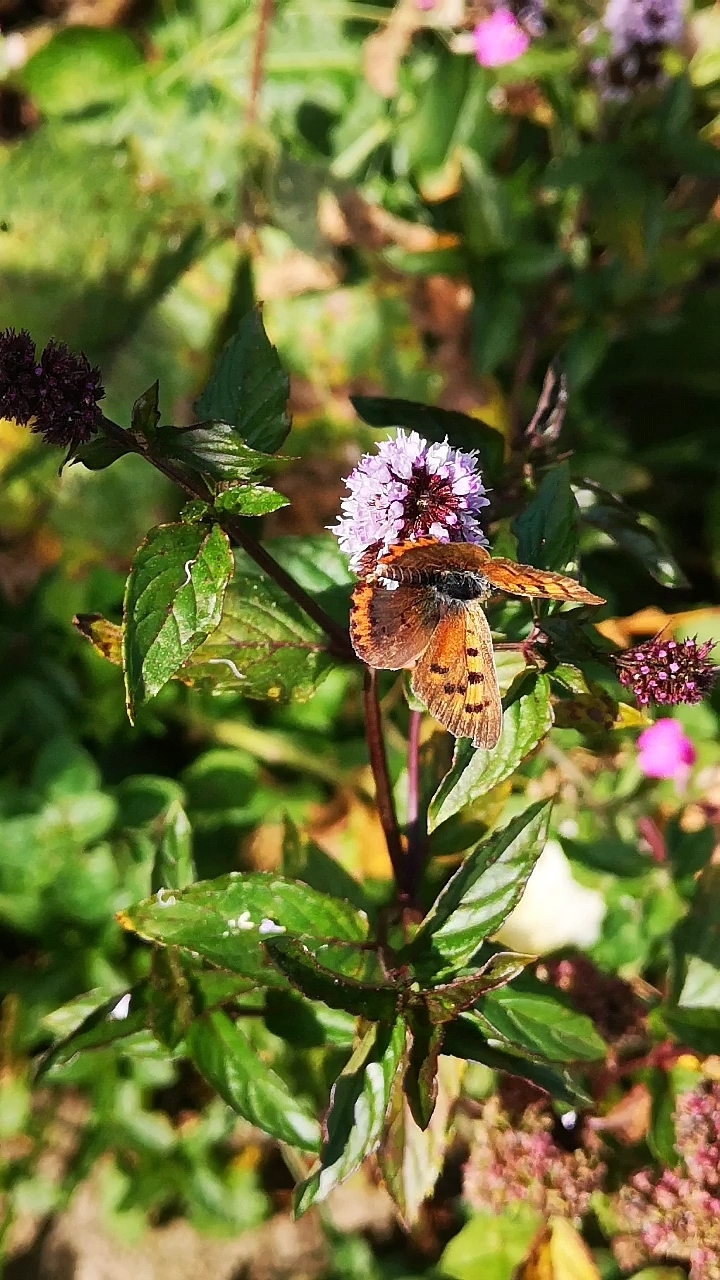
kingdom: Animalia
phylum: Arthropoda
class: Insecta
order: Lepidoptera
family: Lycaenidae
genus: Lycaena
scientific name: Lycaena phlaeas
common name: Small copper
